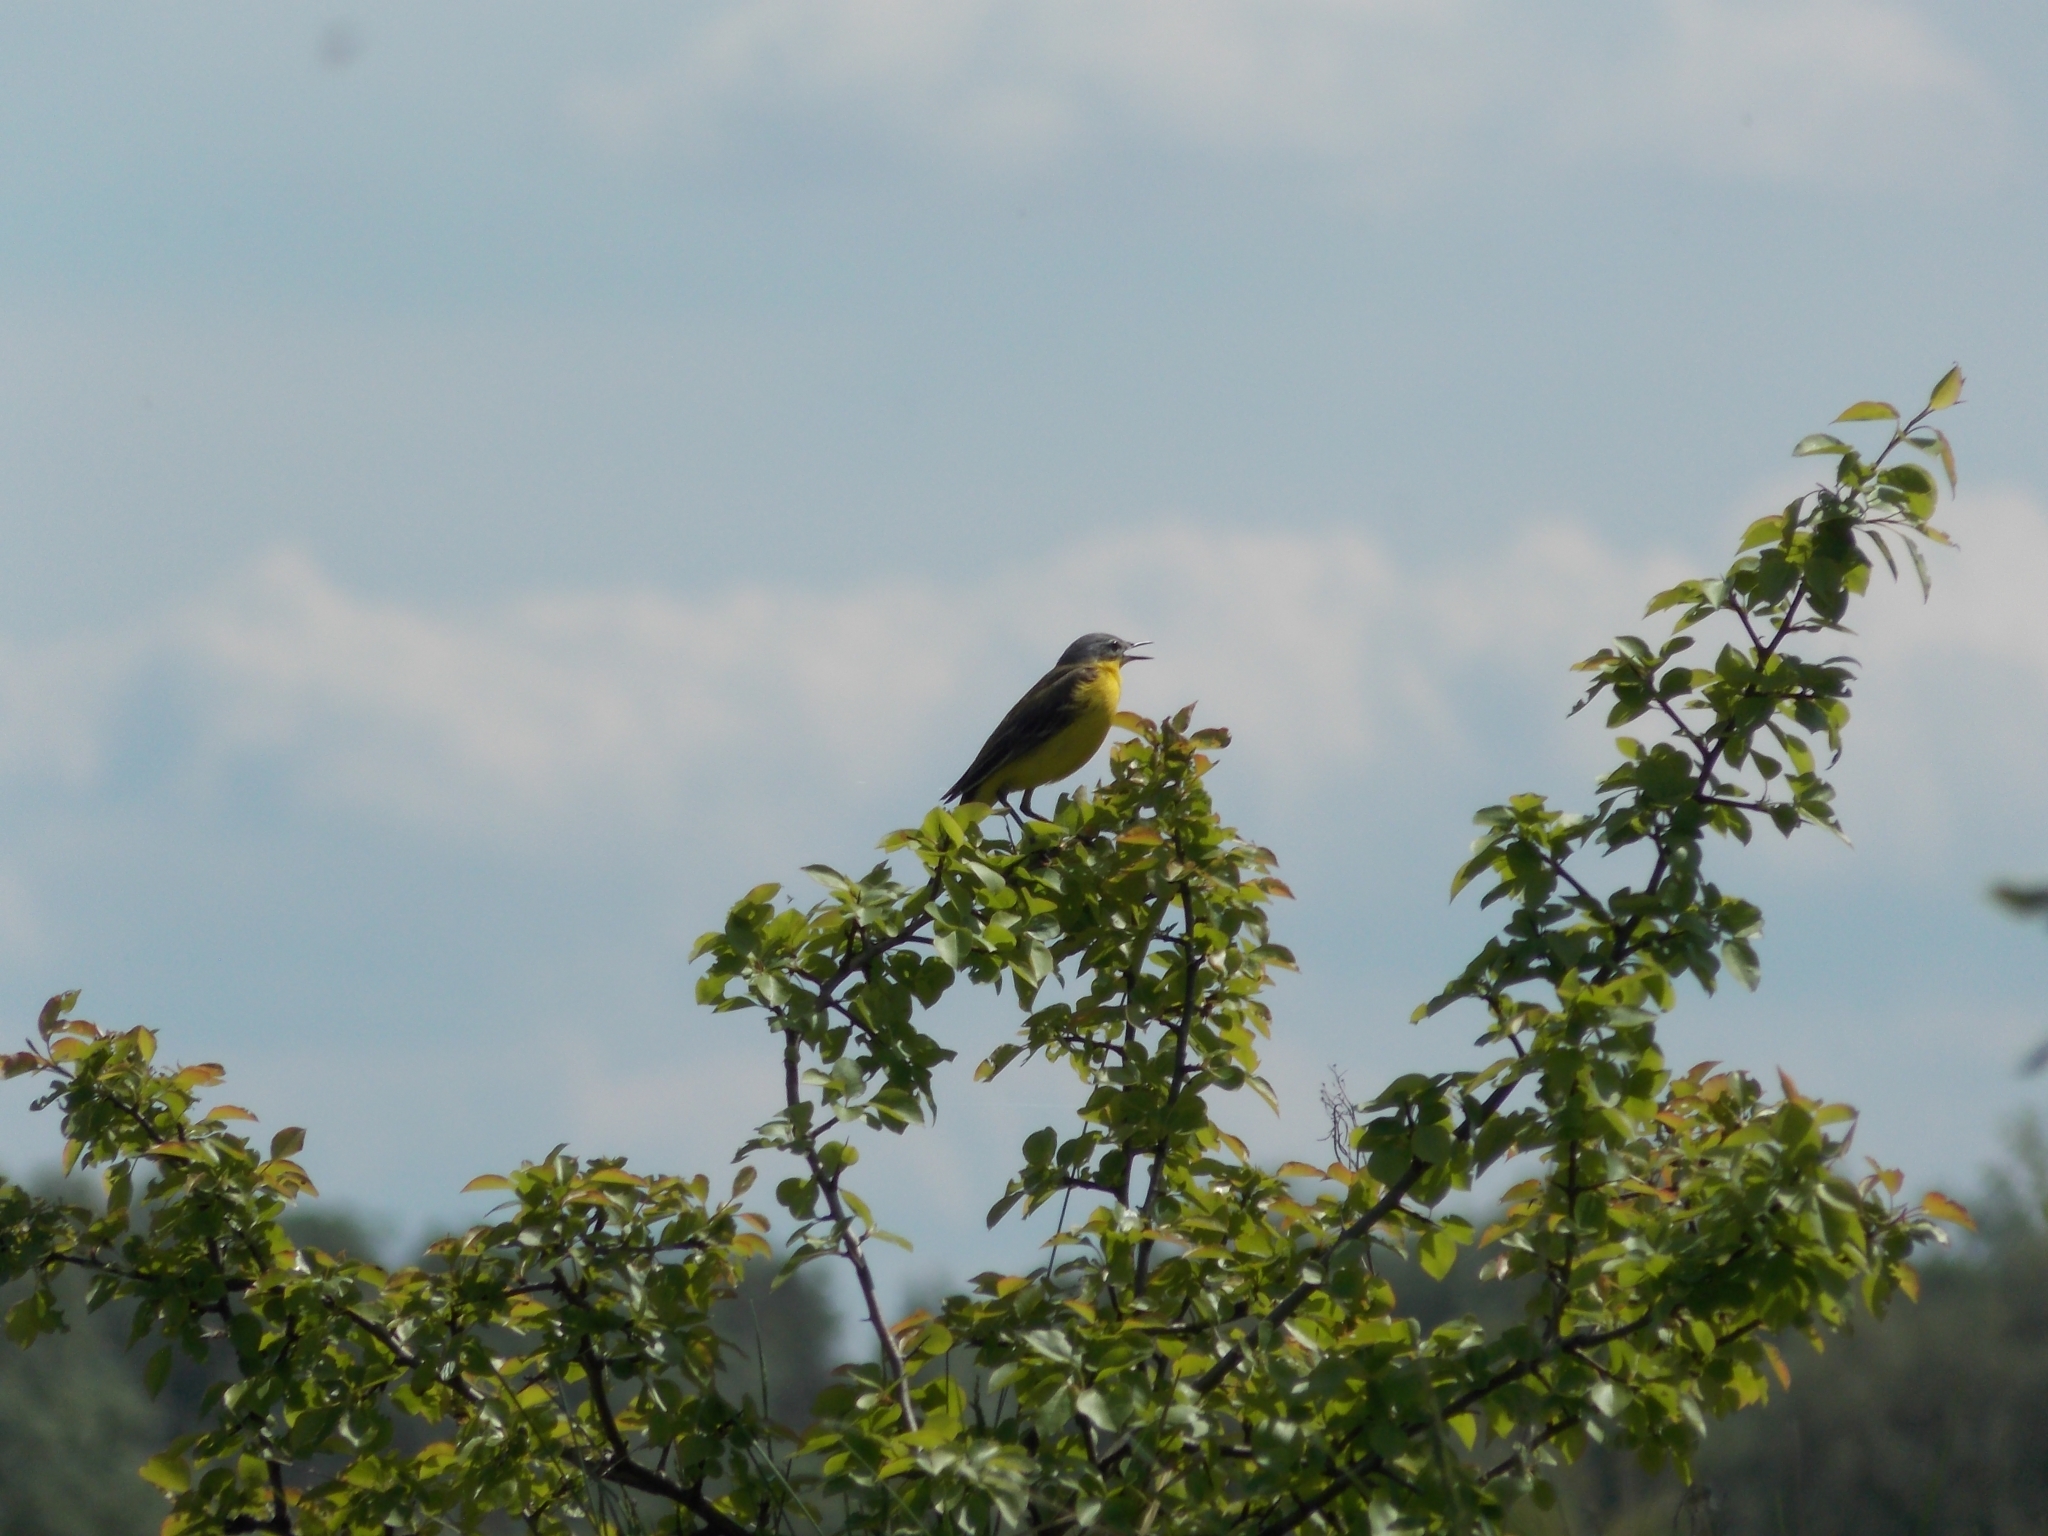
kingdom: Animalia
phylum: Chordata
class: Aves
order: Passeriformes
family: Motacillidae
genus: Motacilla
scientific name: Motacilla flava
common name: Western yellow wagtail
